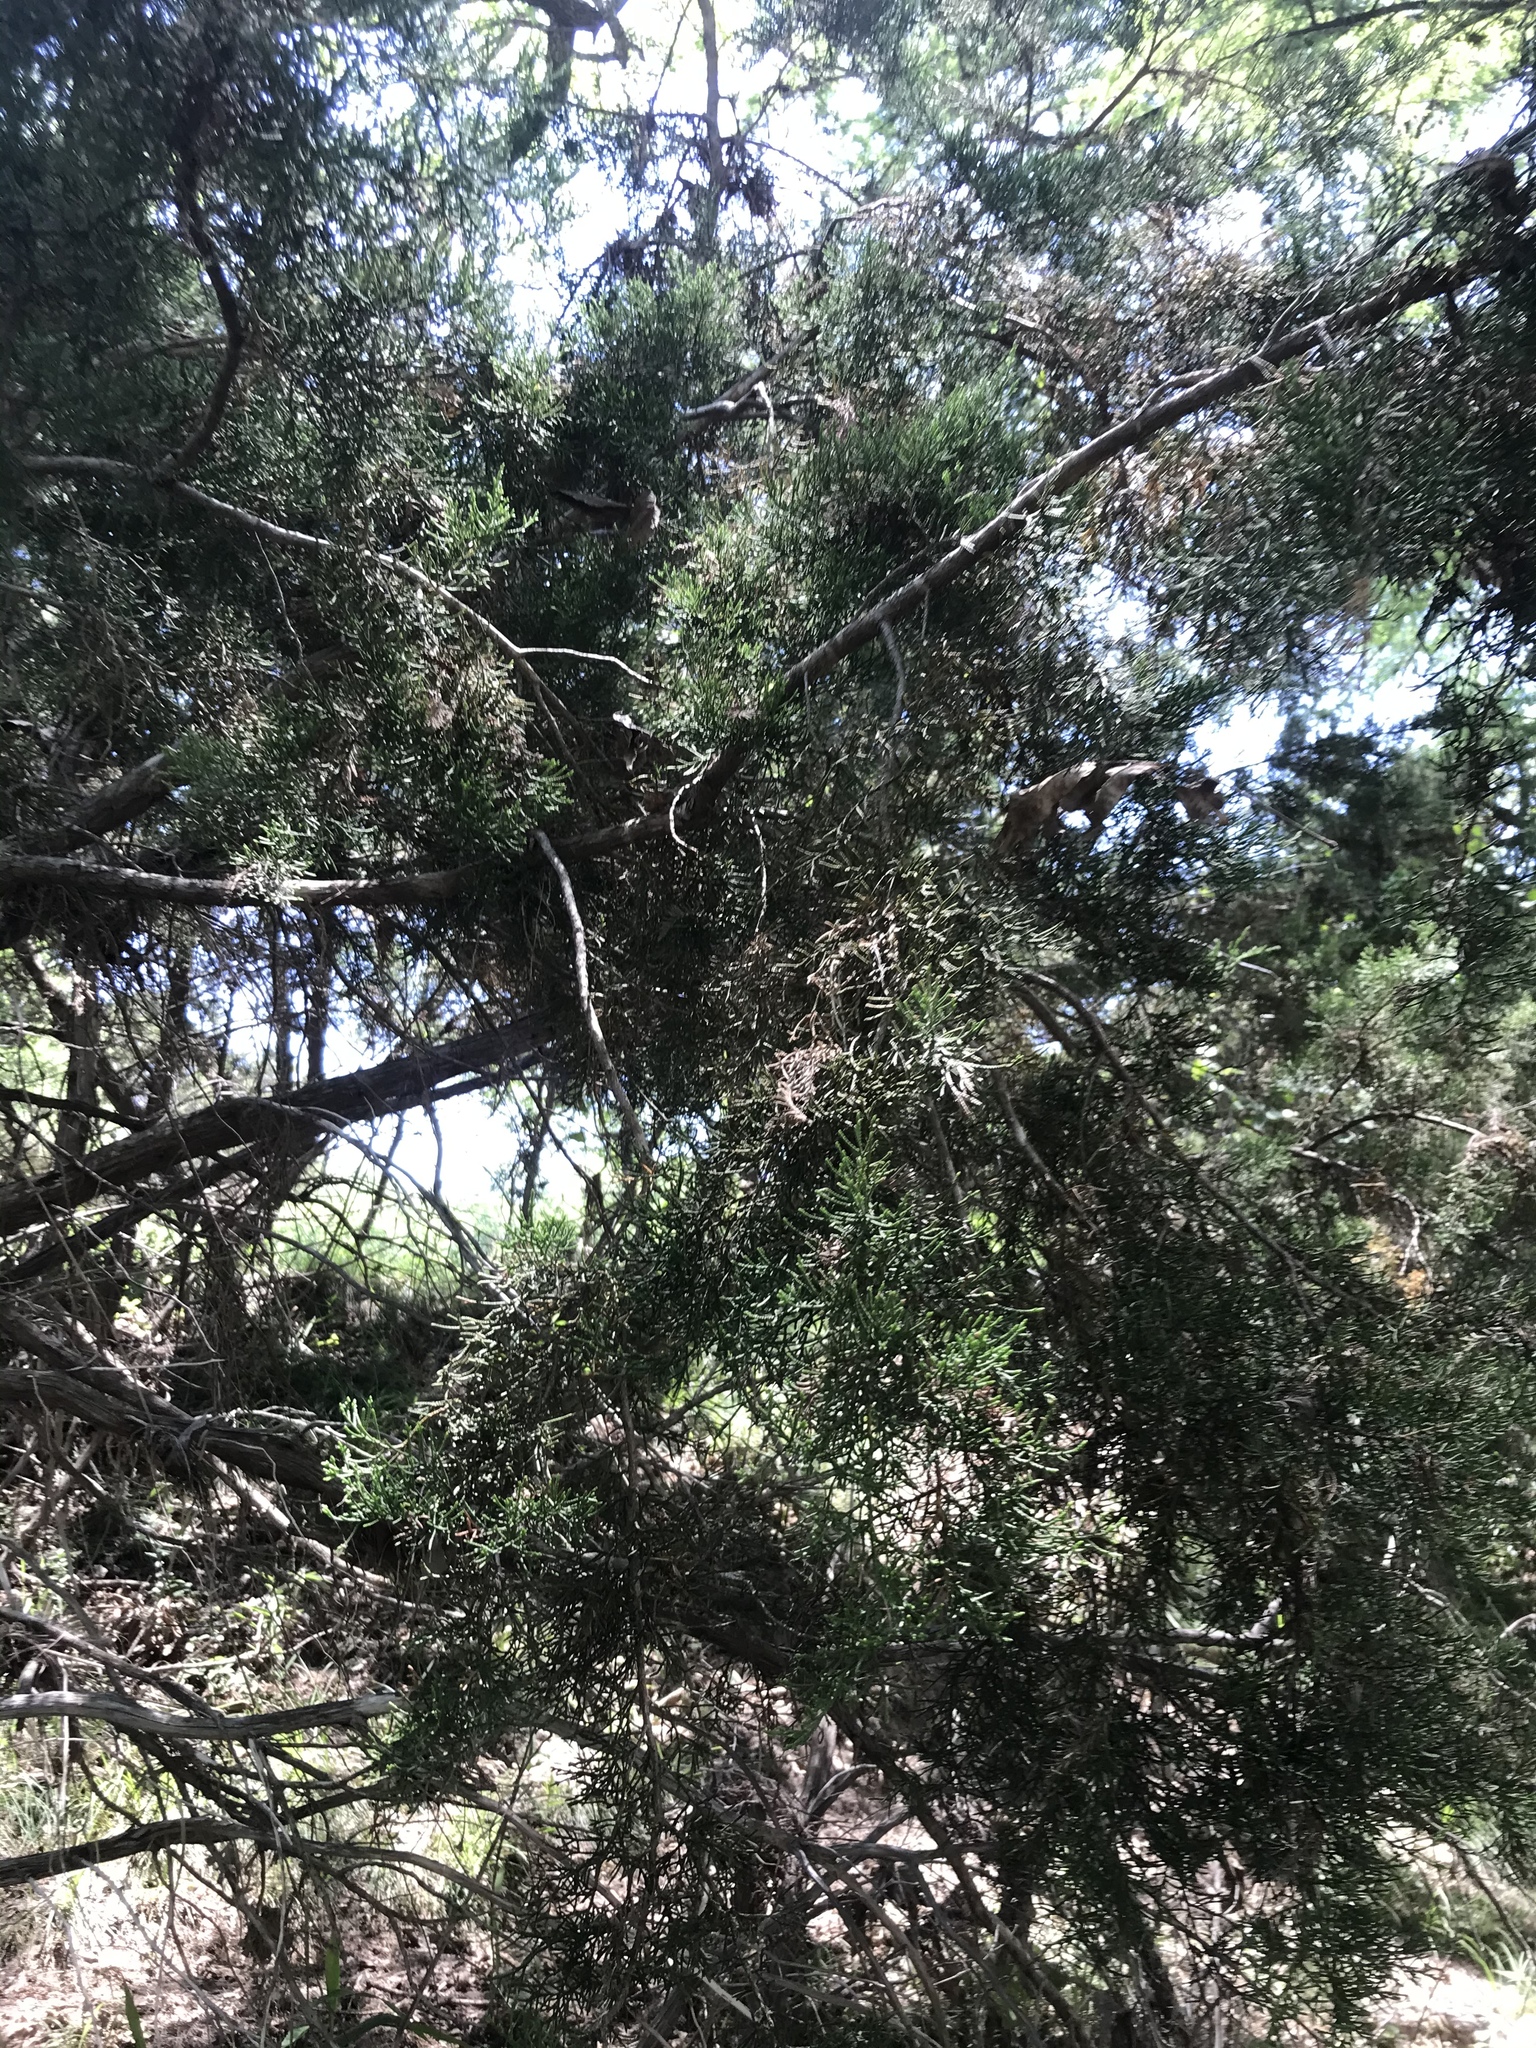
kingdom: Plantae
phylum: Tracheophyta
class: Pinopsida
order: Pinales
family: Cupressaceae
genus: Juniperus
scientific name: Juniperus ashei
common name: Mexican juniper
